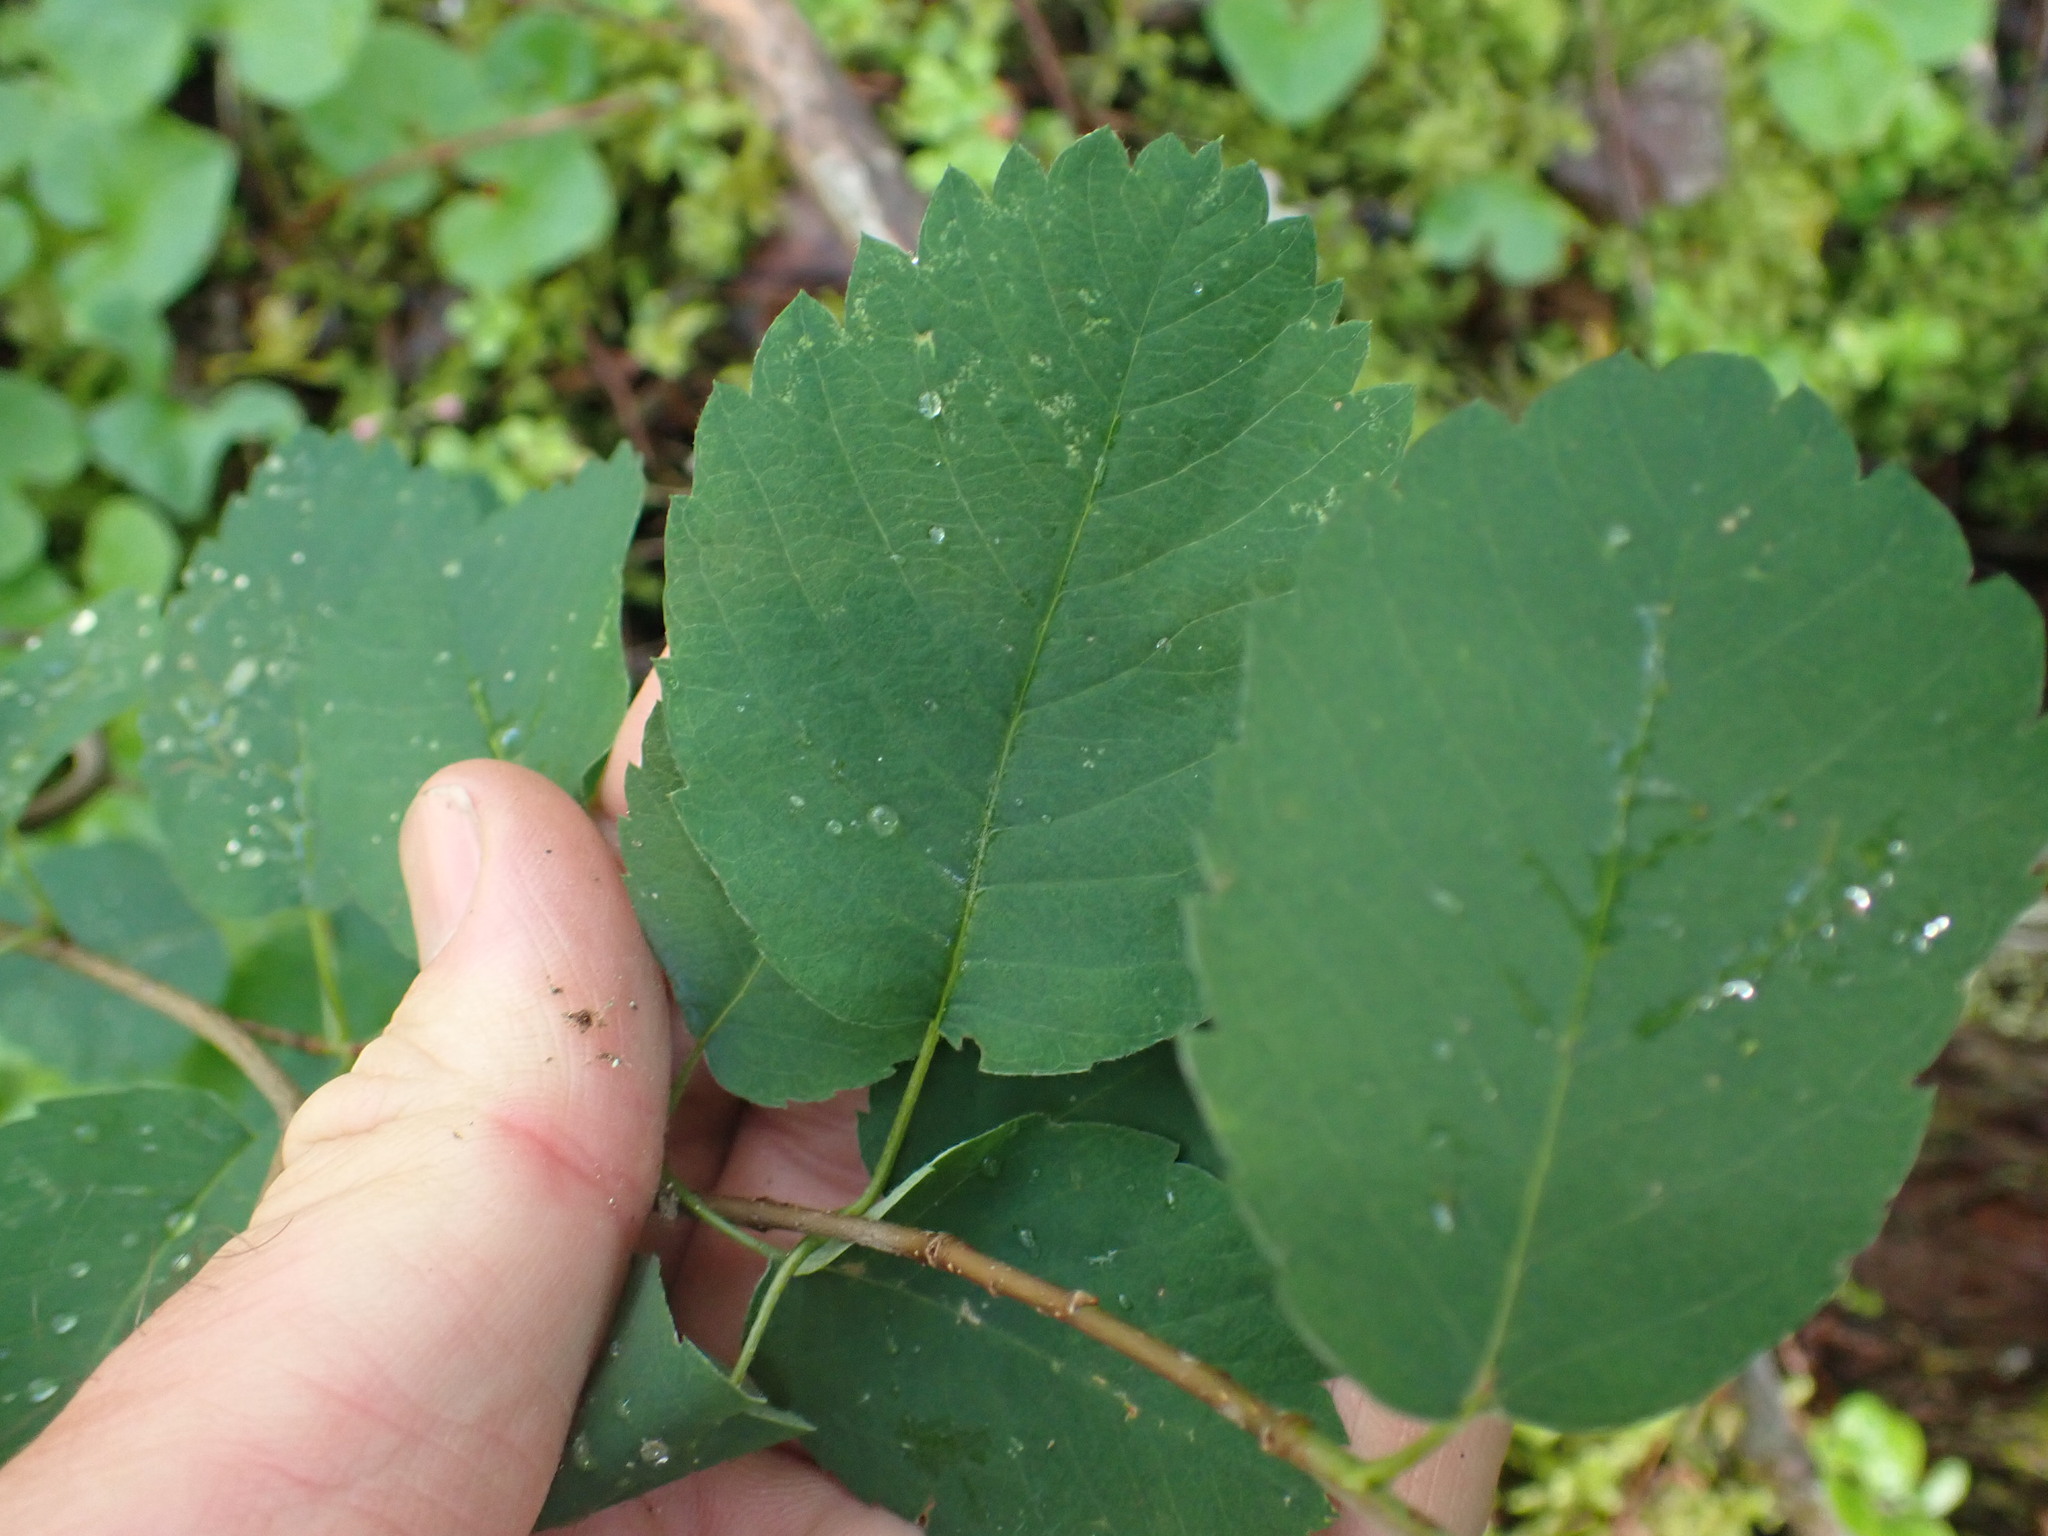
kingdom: Plantae
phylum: Tracheophyta
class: Magnoliopsida
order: Rosales
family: Rosaceae
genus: Amelanchier
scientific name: Amelanchier alnifolia
